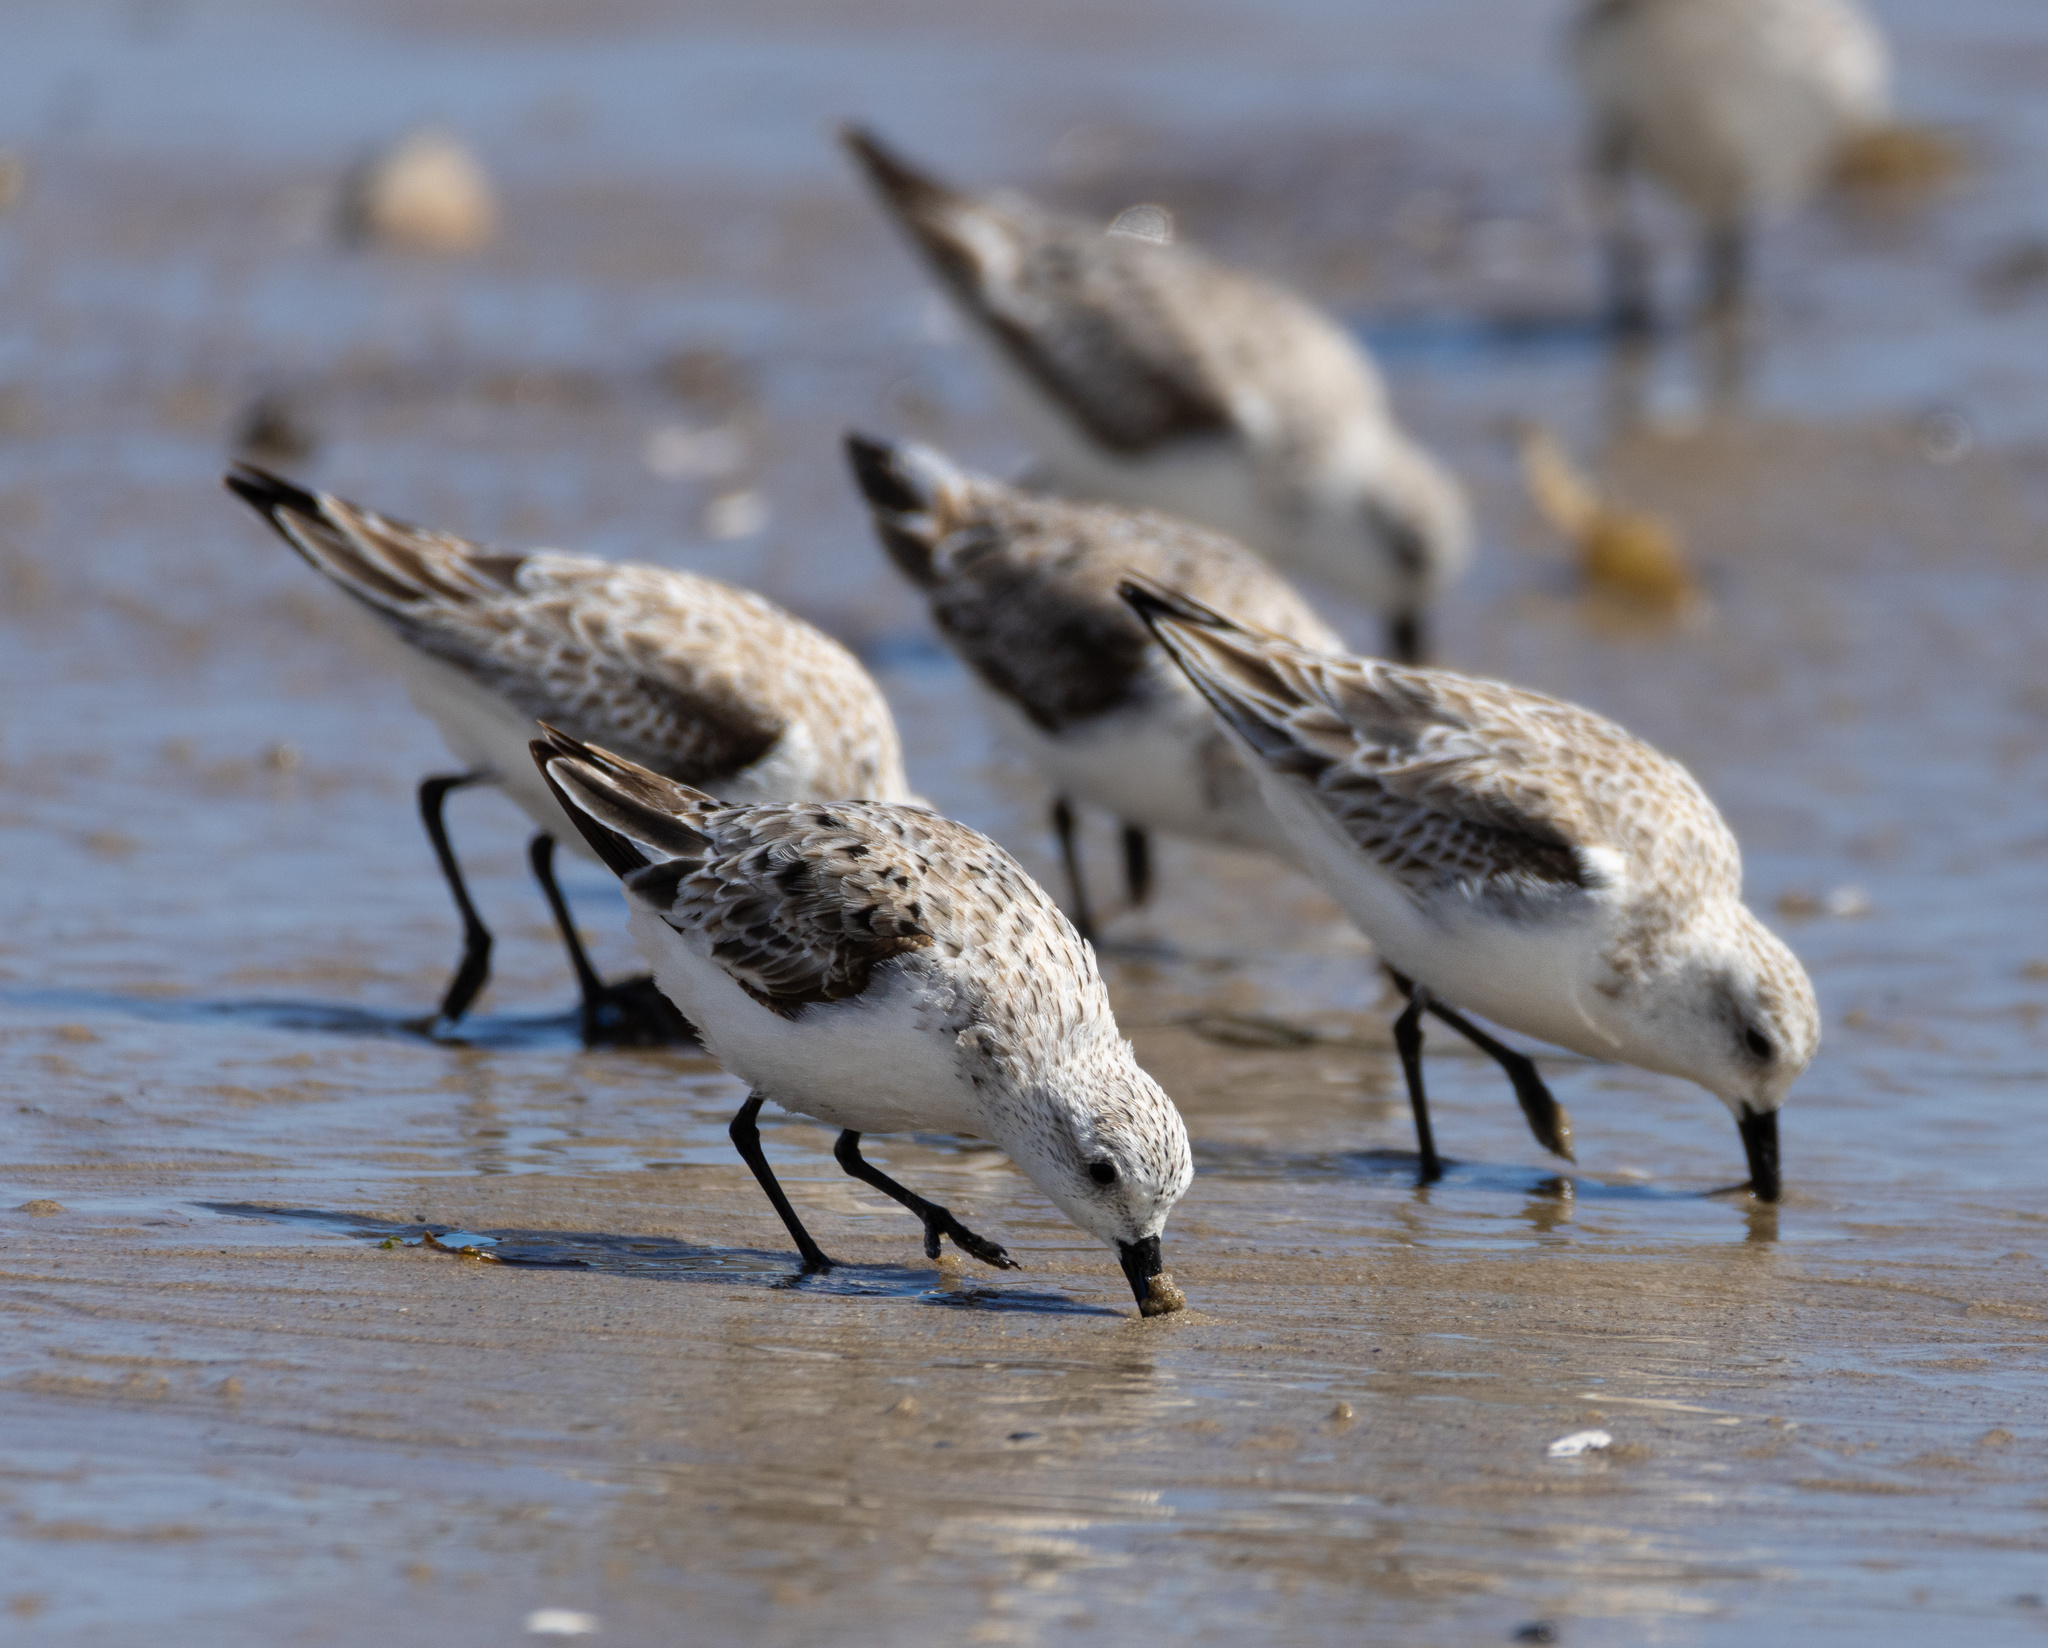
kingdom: Animalia
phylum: Chordata
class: Aves
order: Charadriiformes
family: Scolopacidae
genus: Calidris
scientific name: Calidris alba
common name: Sanderling
